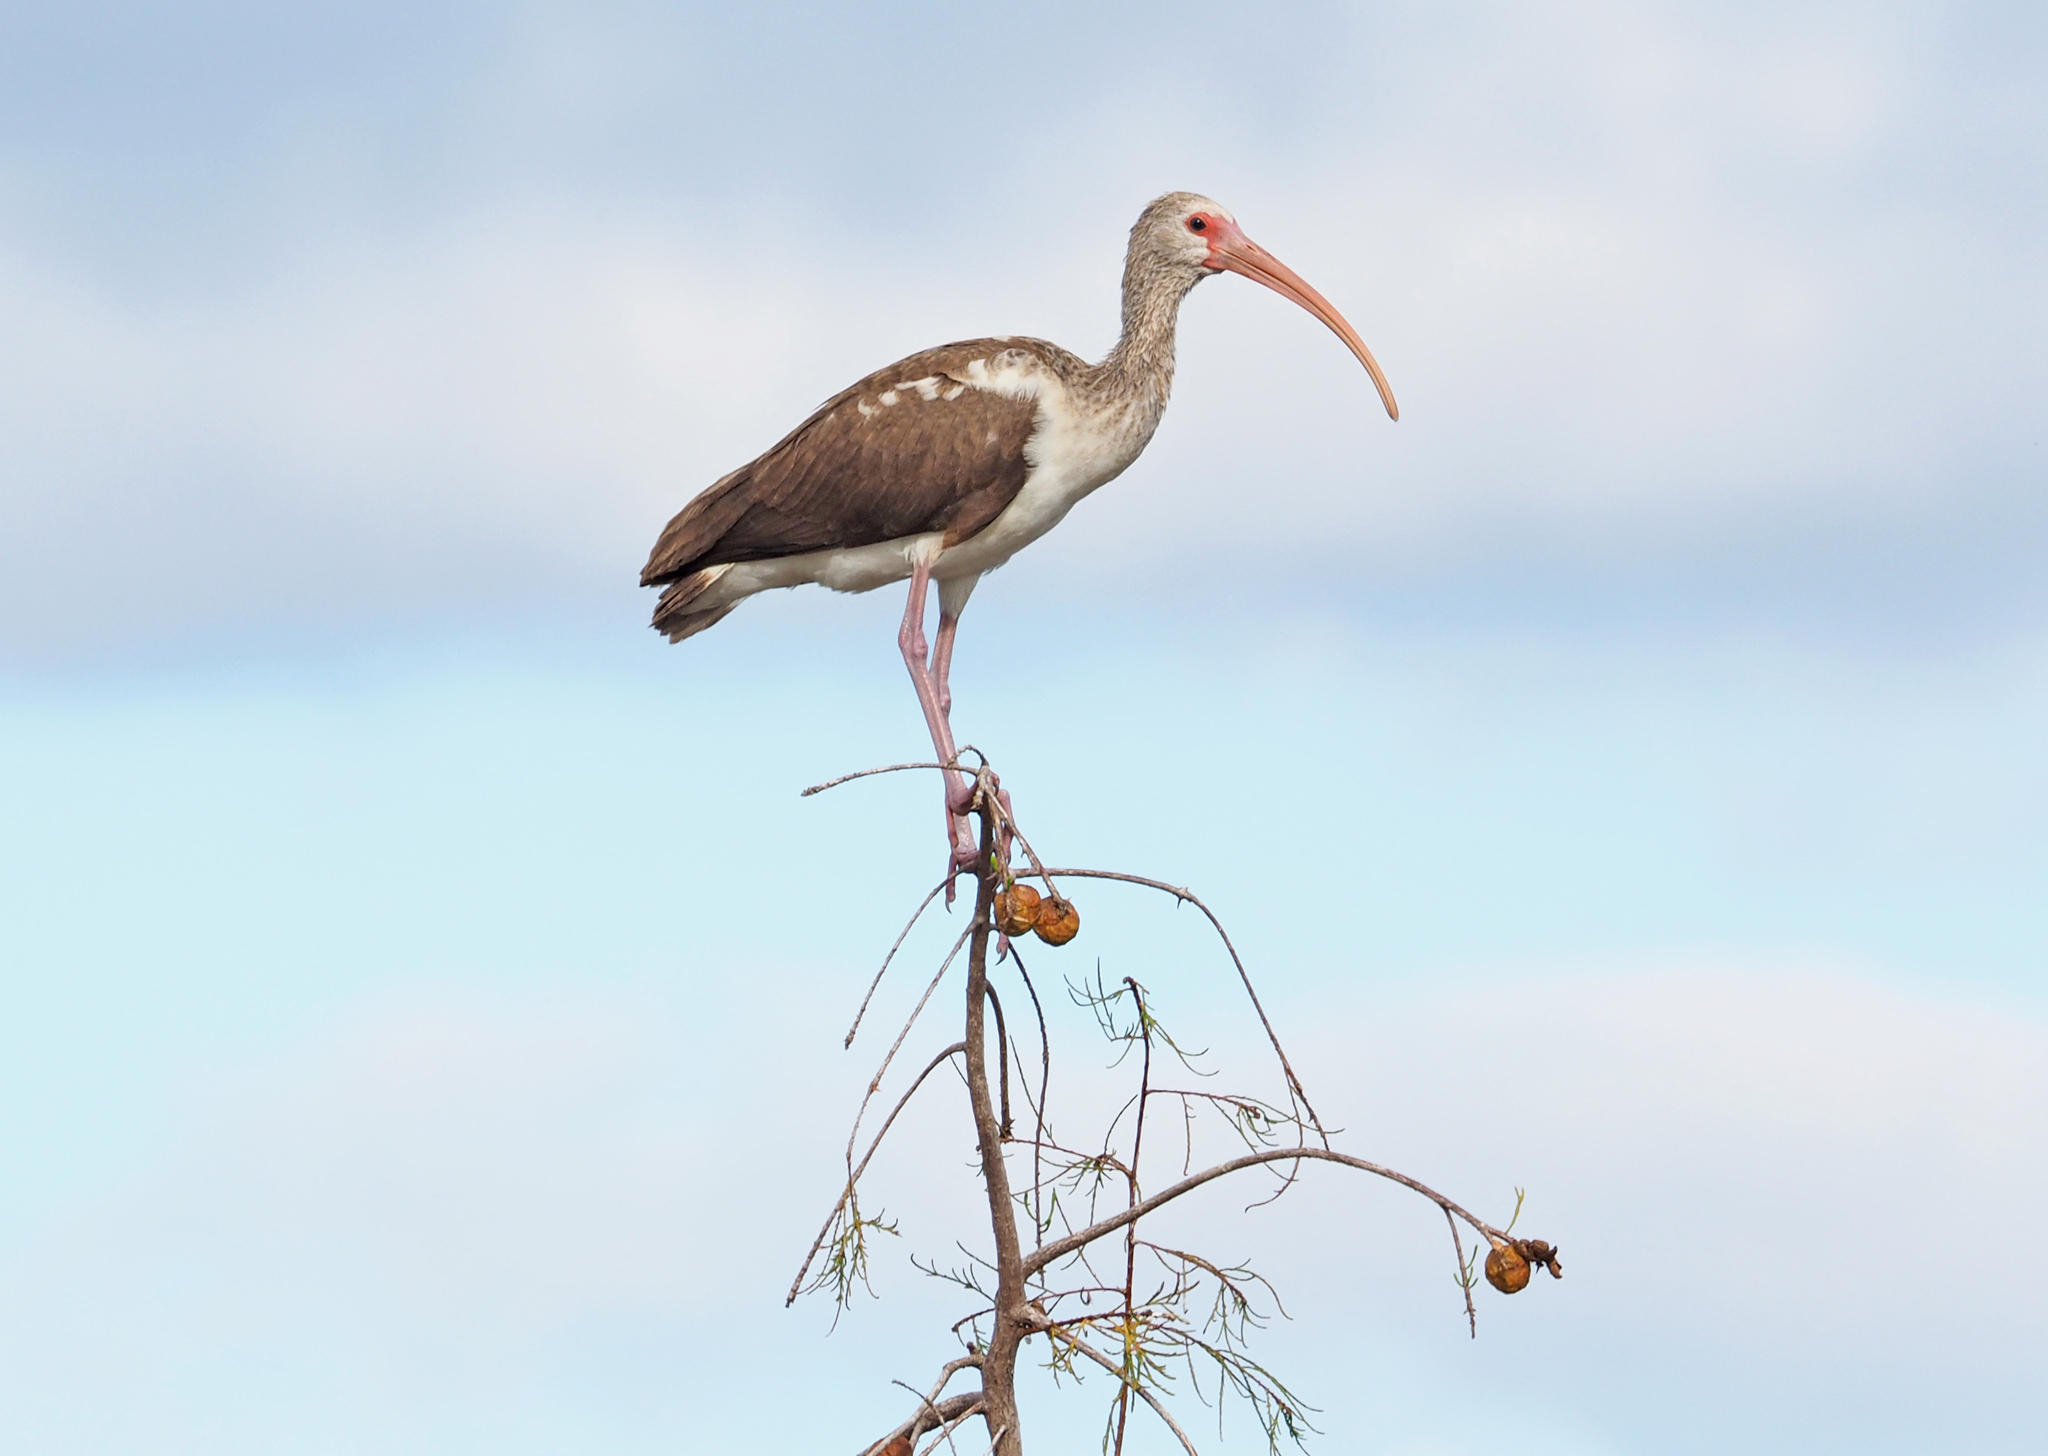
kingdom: Animalia
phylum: Chordata
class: Aves
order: Pelecaniformes
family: Threskiornithidae
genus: Eudocimus
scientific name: Eudocimus albus
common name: White ibis
